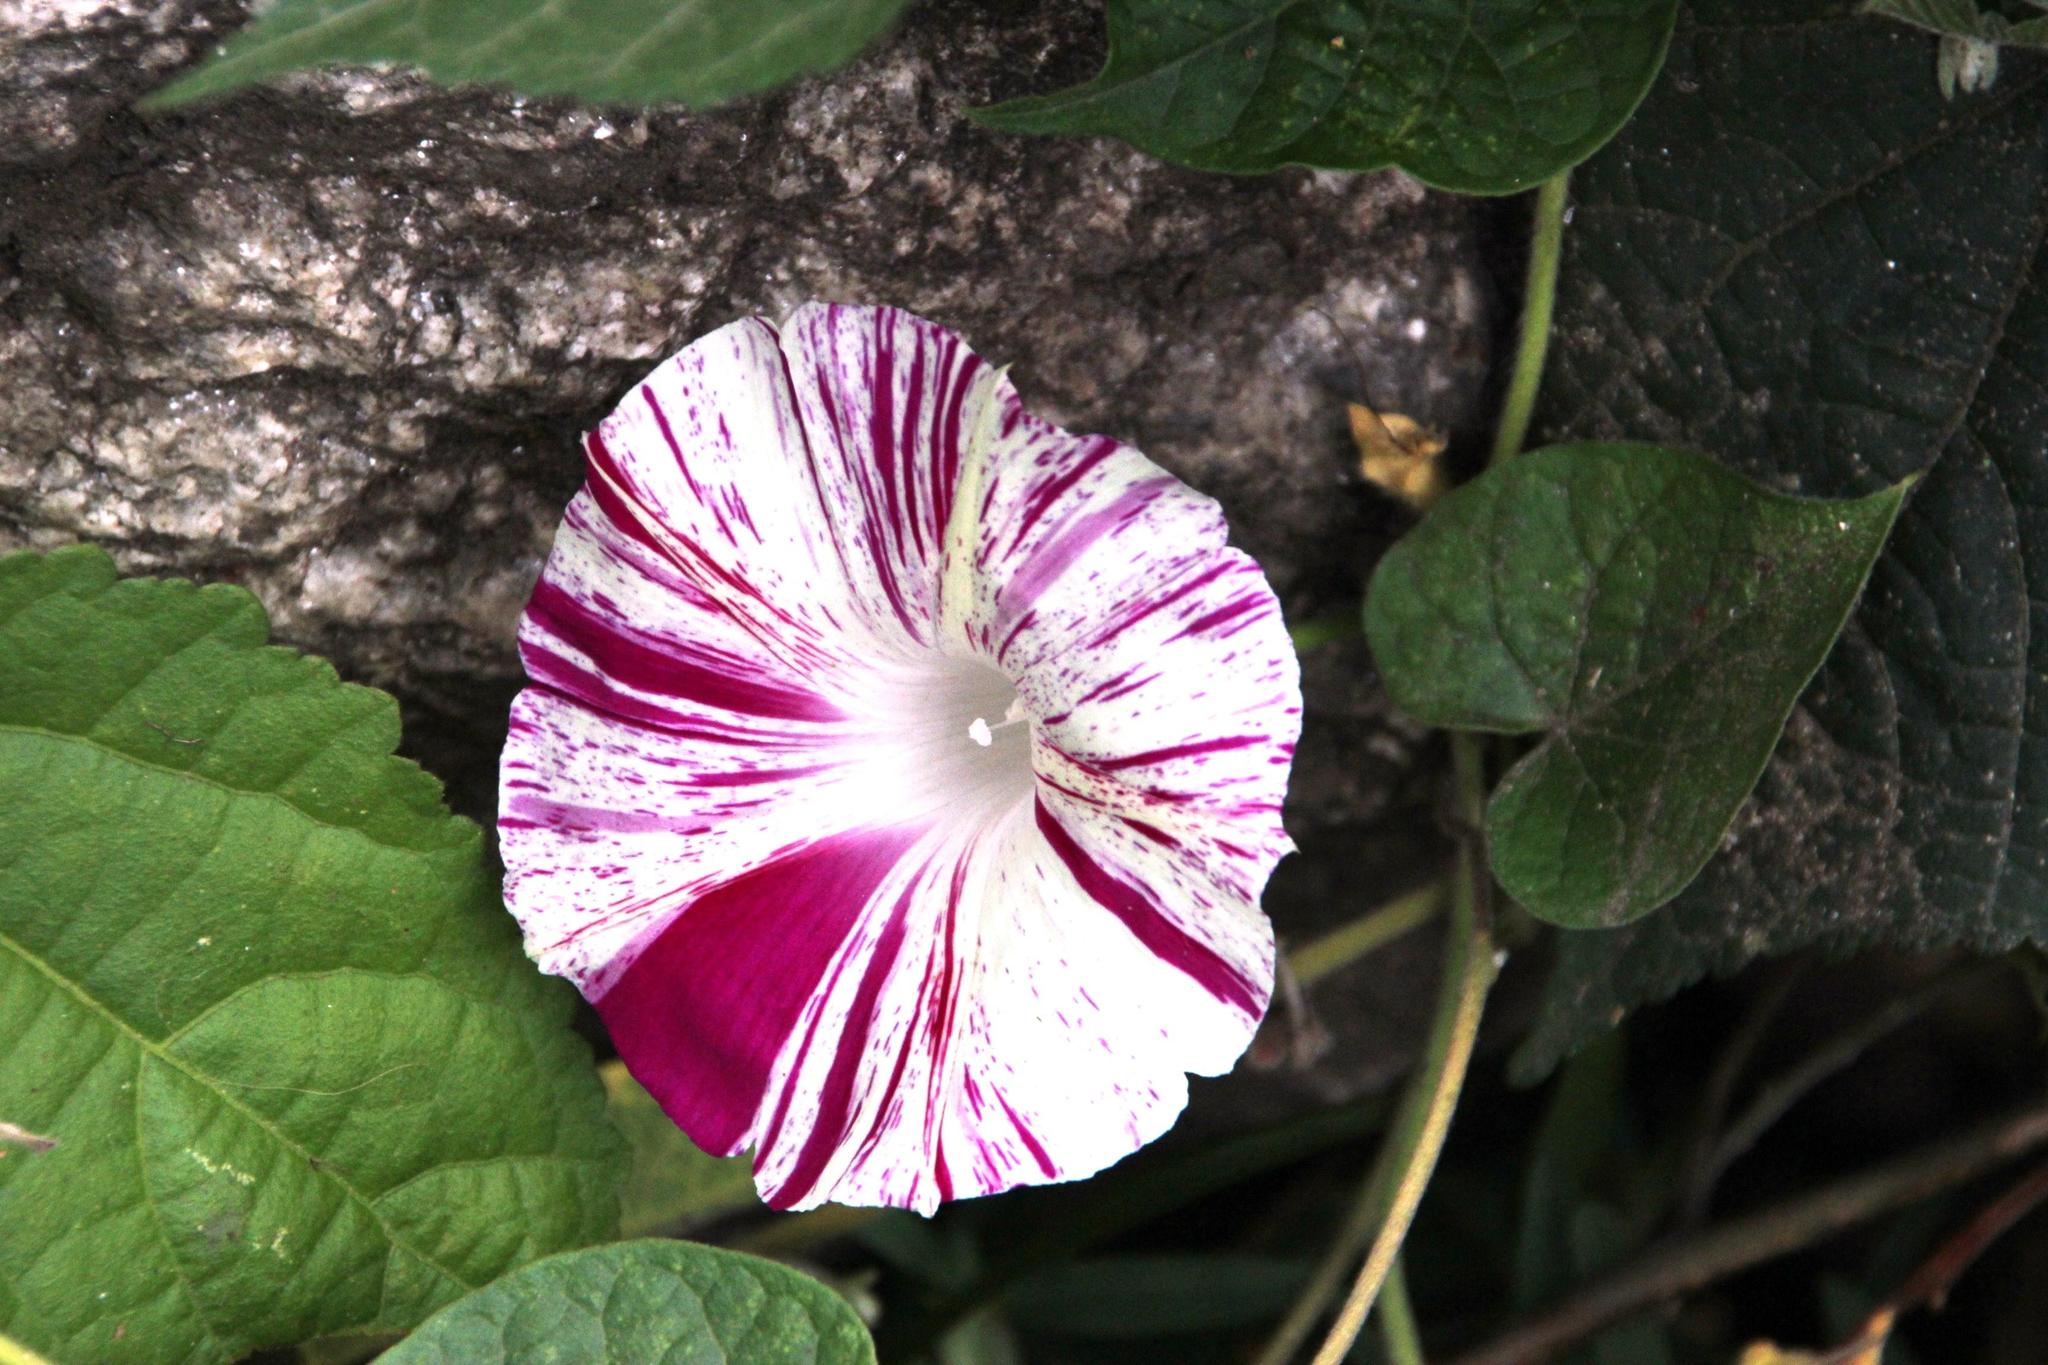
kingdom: Plantae
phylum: Tracheophyta
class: Magnoliopsida
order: Solanales
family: Convolvulaceae
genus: Ipomoea
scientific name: Ipomoea purpurea
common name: Common morning-glory
